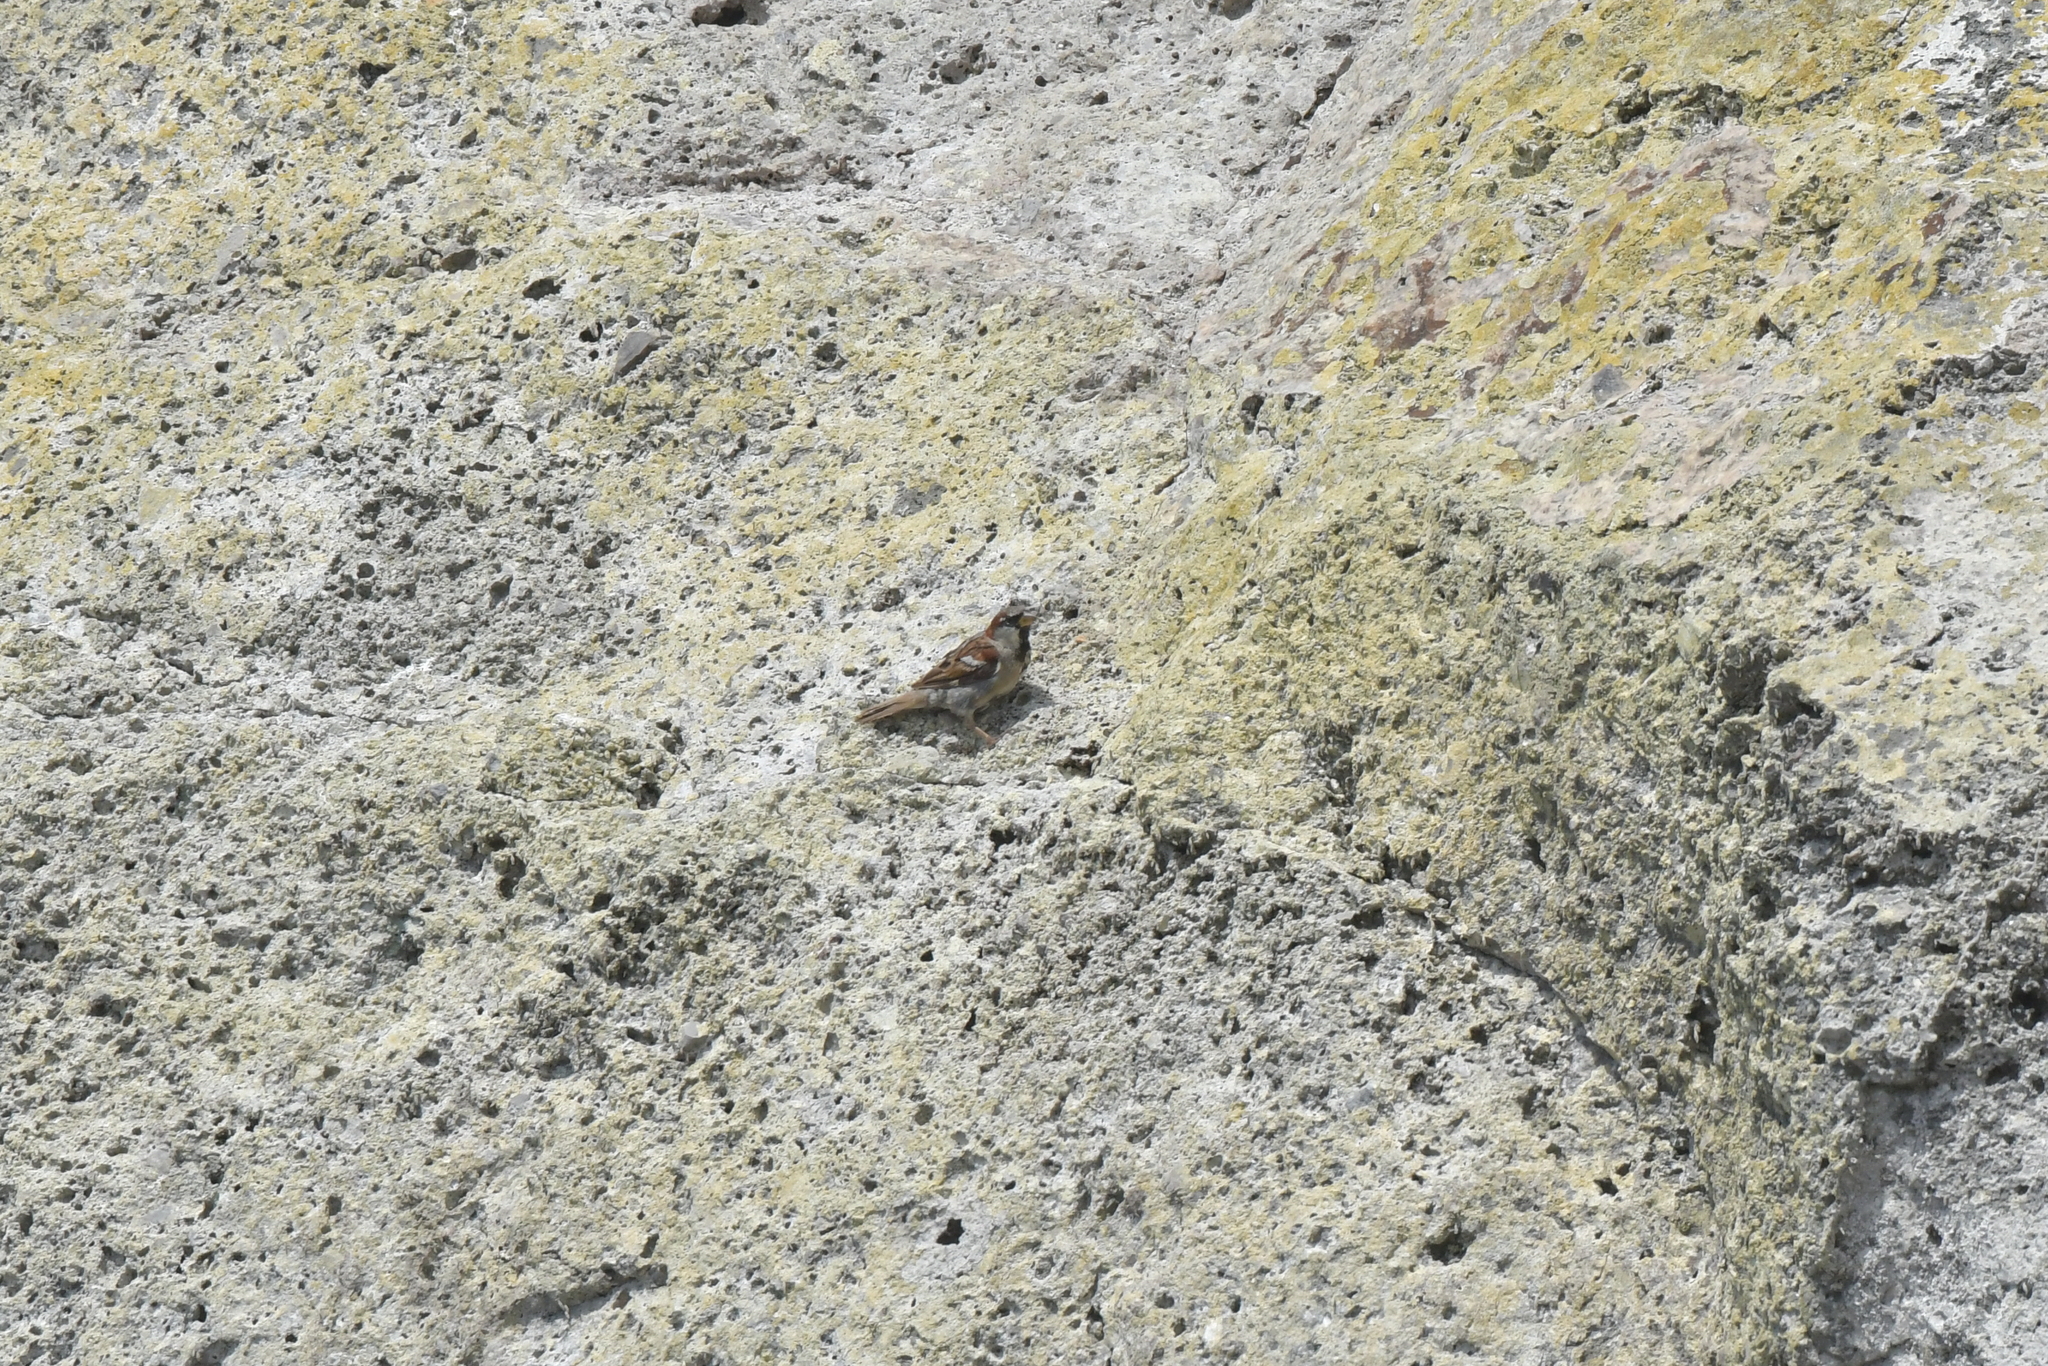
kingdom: Animalia
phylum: Chordata
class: Aves
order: Passeriformes
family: Passeridae
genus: Passer
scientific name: Passer domesticus
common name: House sparrow
